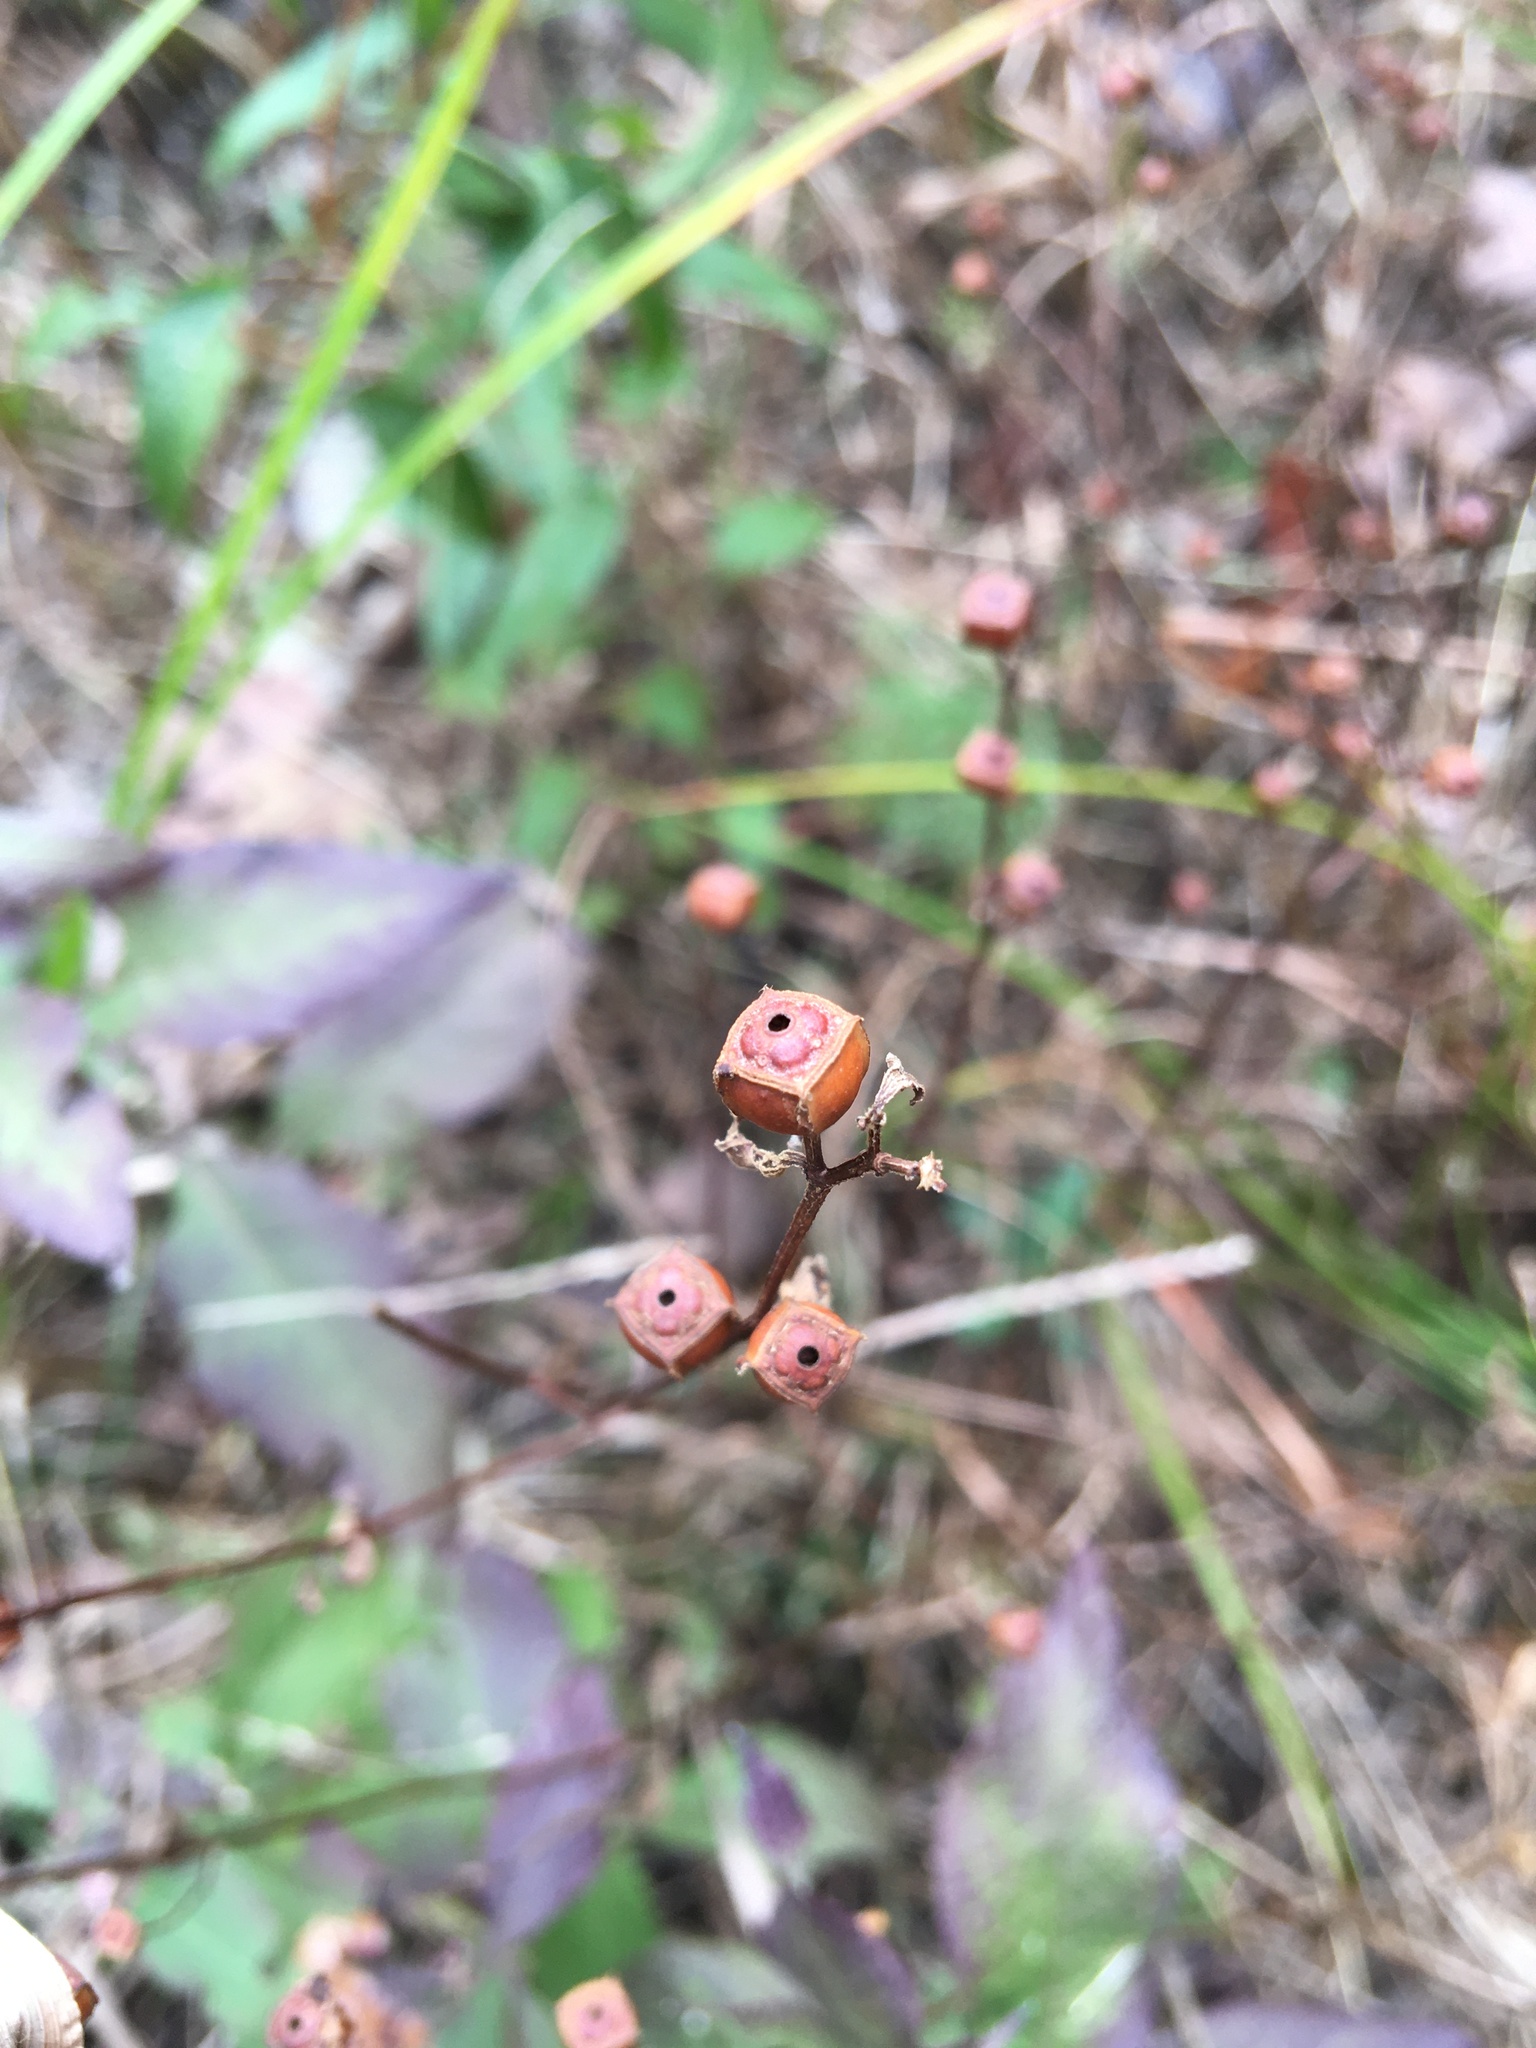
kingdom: Plantae
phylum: Tracheophyta
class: Magnoliopsida
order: Myrtales
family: Onagraceae
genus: Ludwigia
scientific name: Ludwigia alternifolia
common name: Rattlebox
